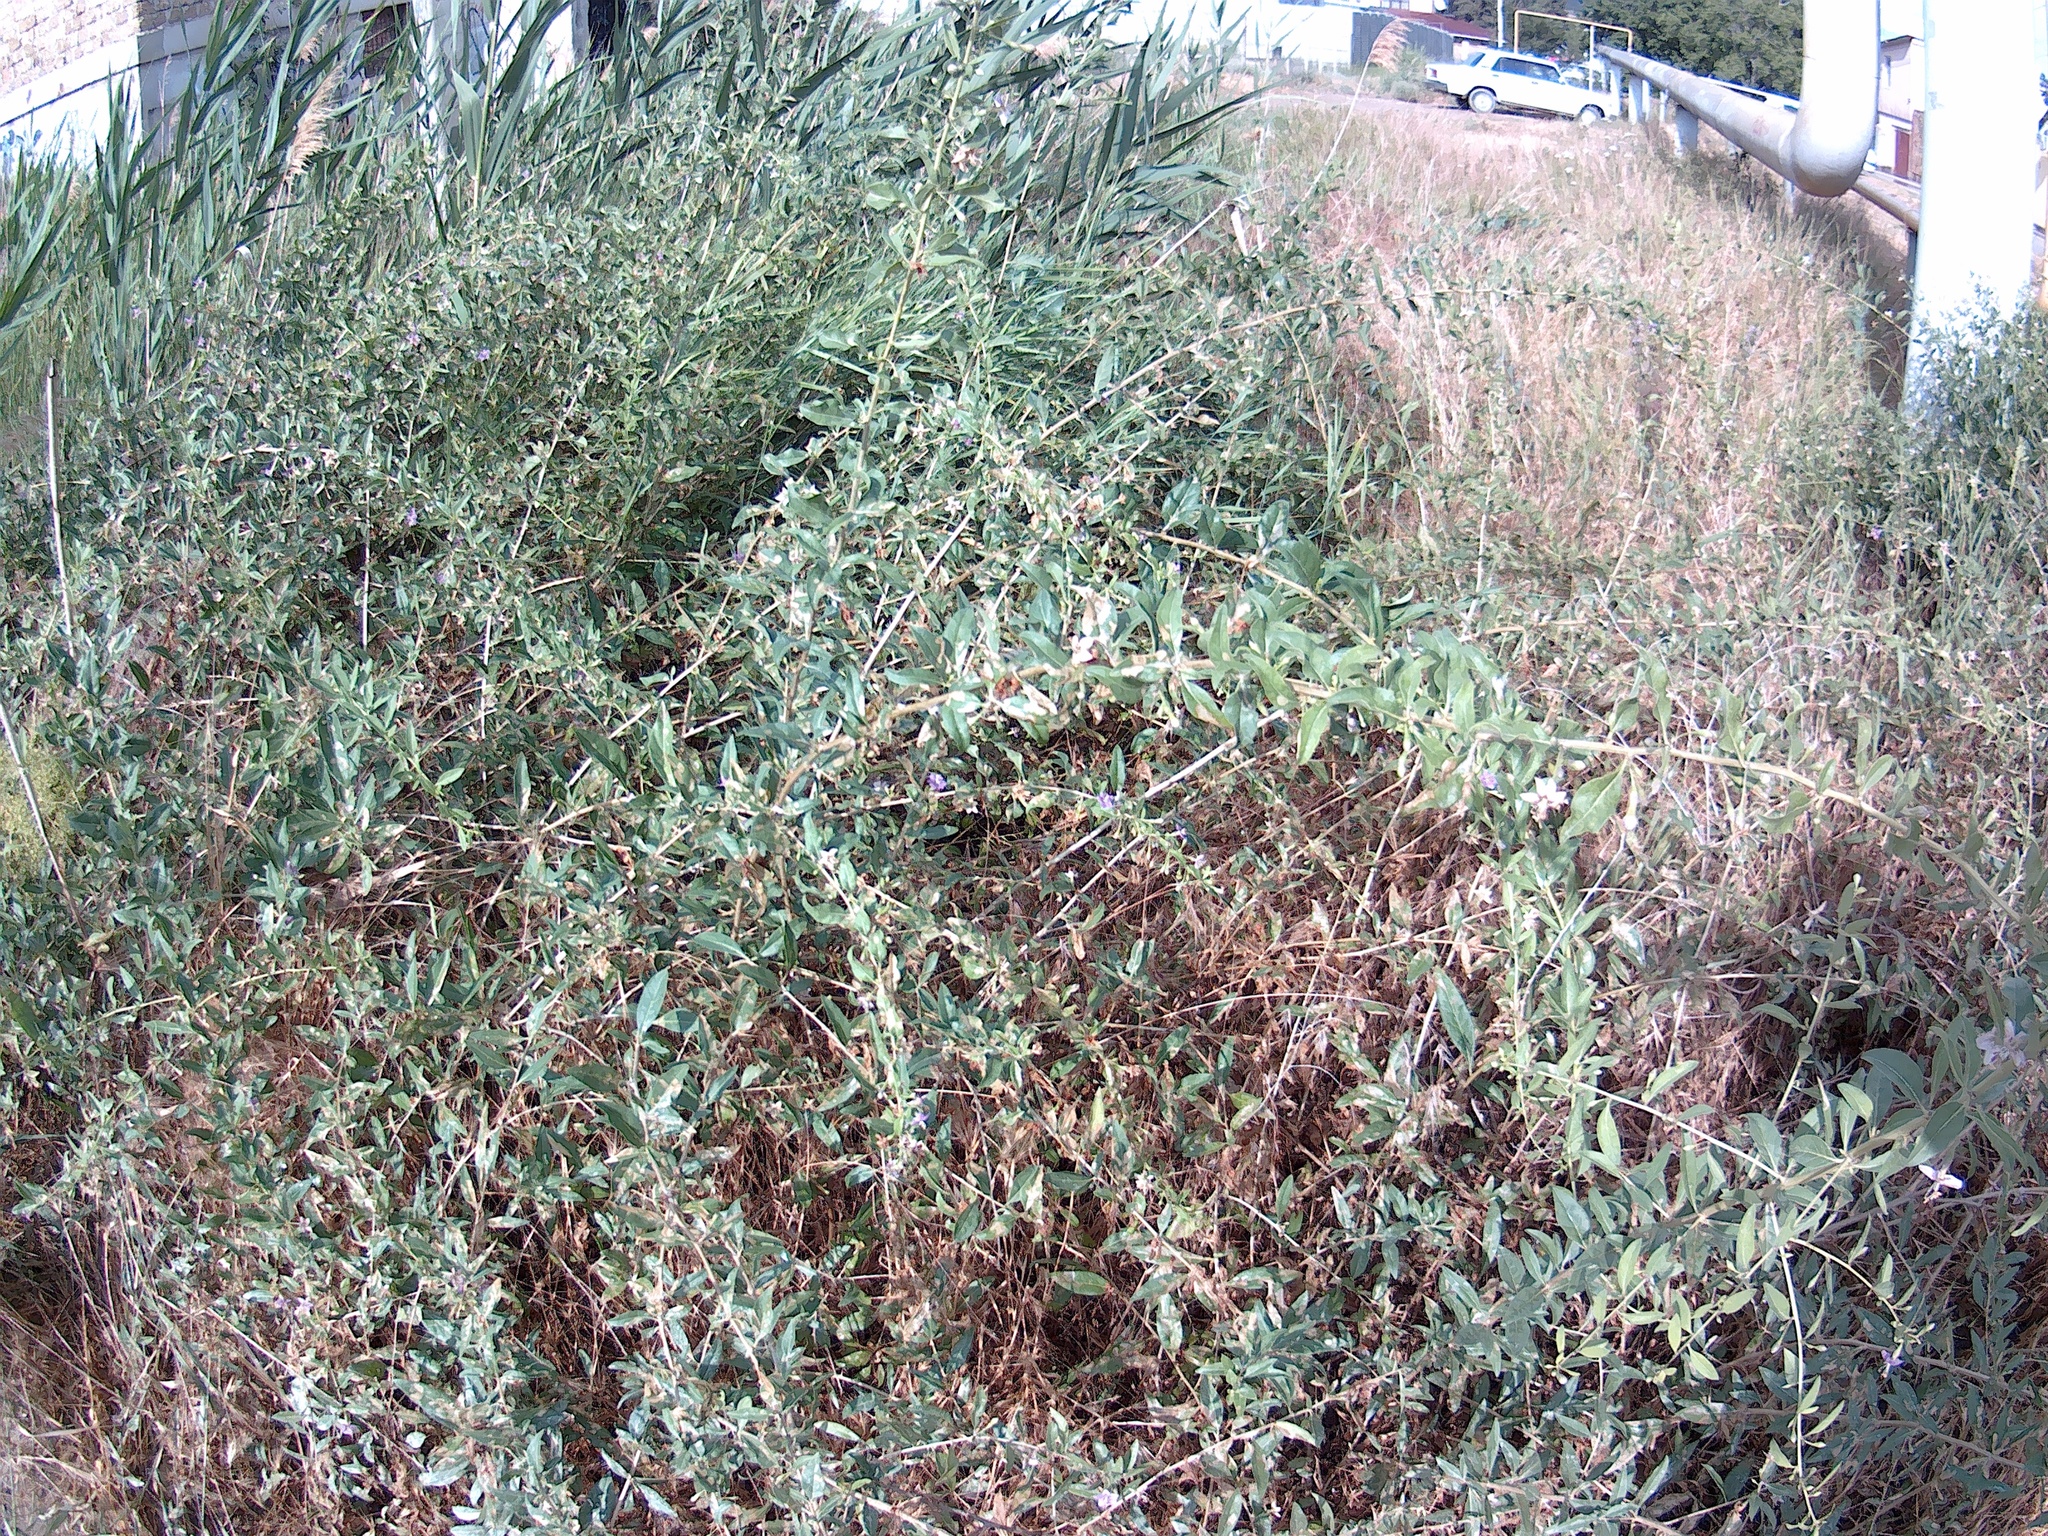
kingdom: Plantae
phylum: Tracheophyta
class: Magnoliopsida
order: Solanales
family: Solanaceae
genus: Lycium
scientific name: Lycium barbarum
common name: Duke of argyll's teaplant
